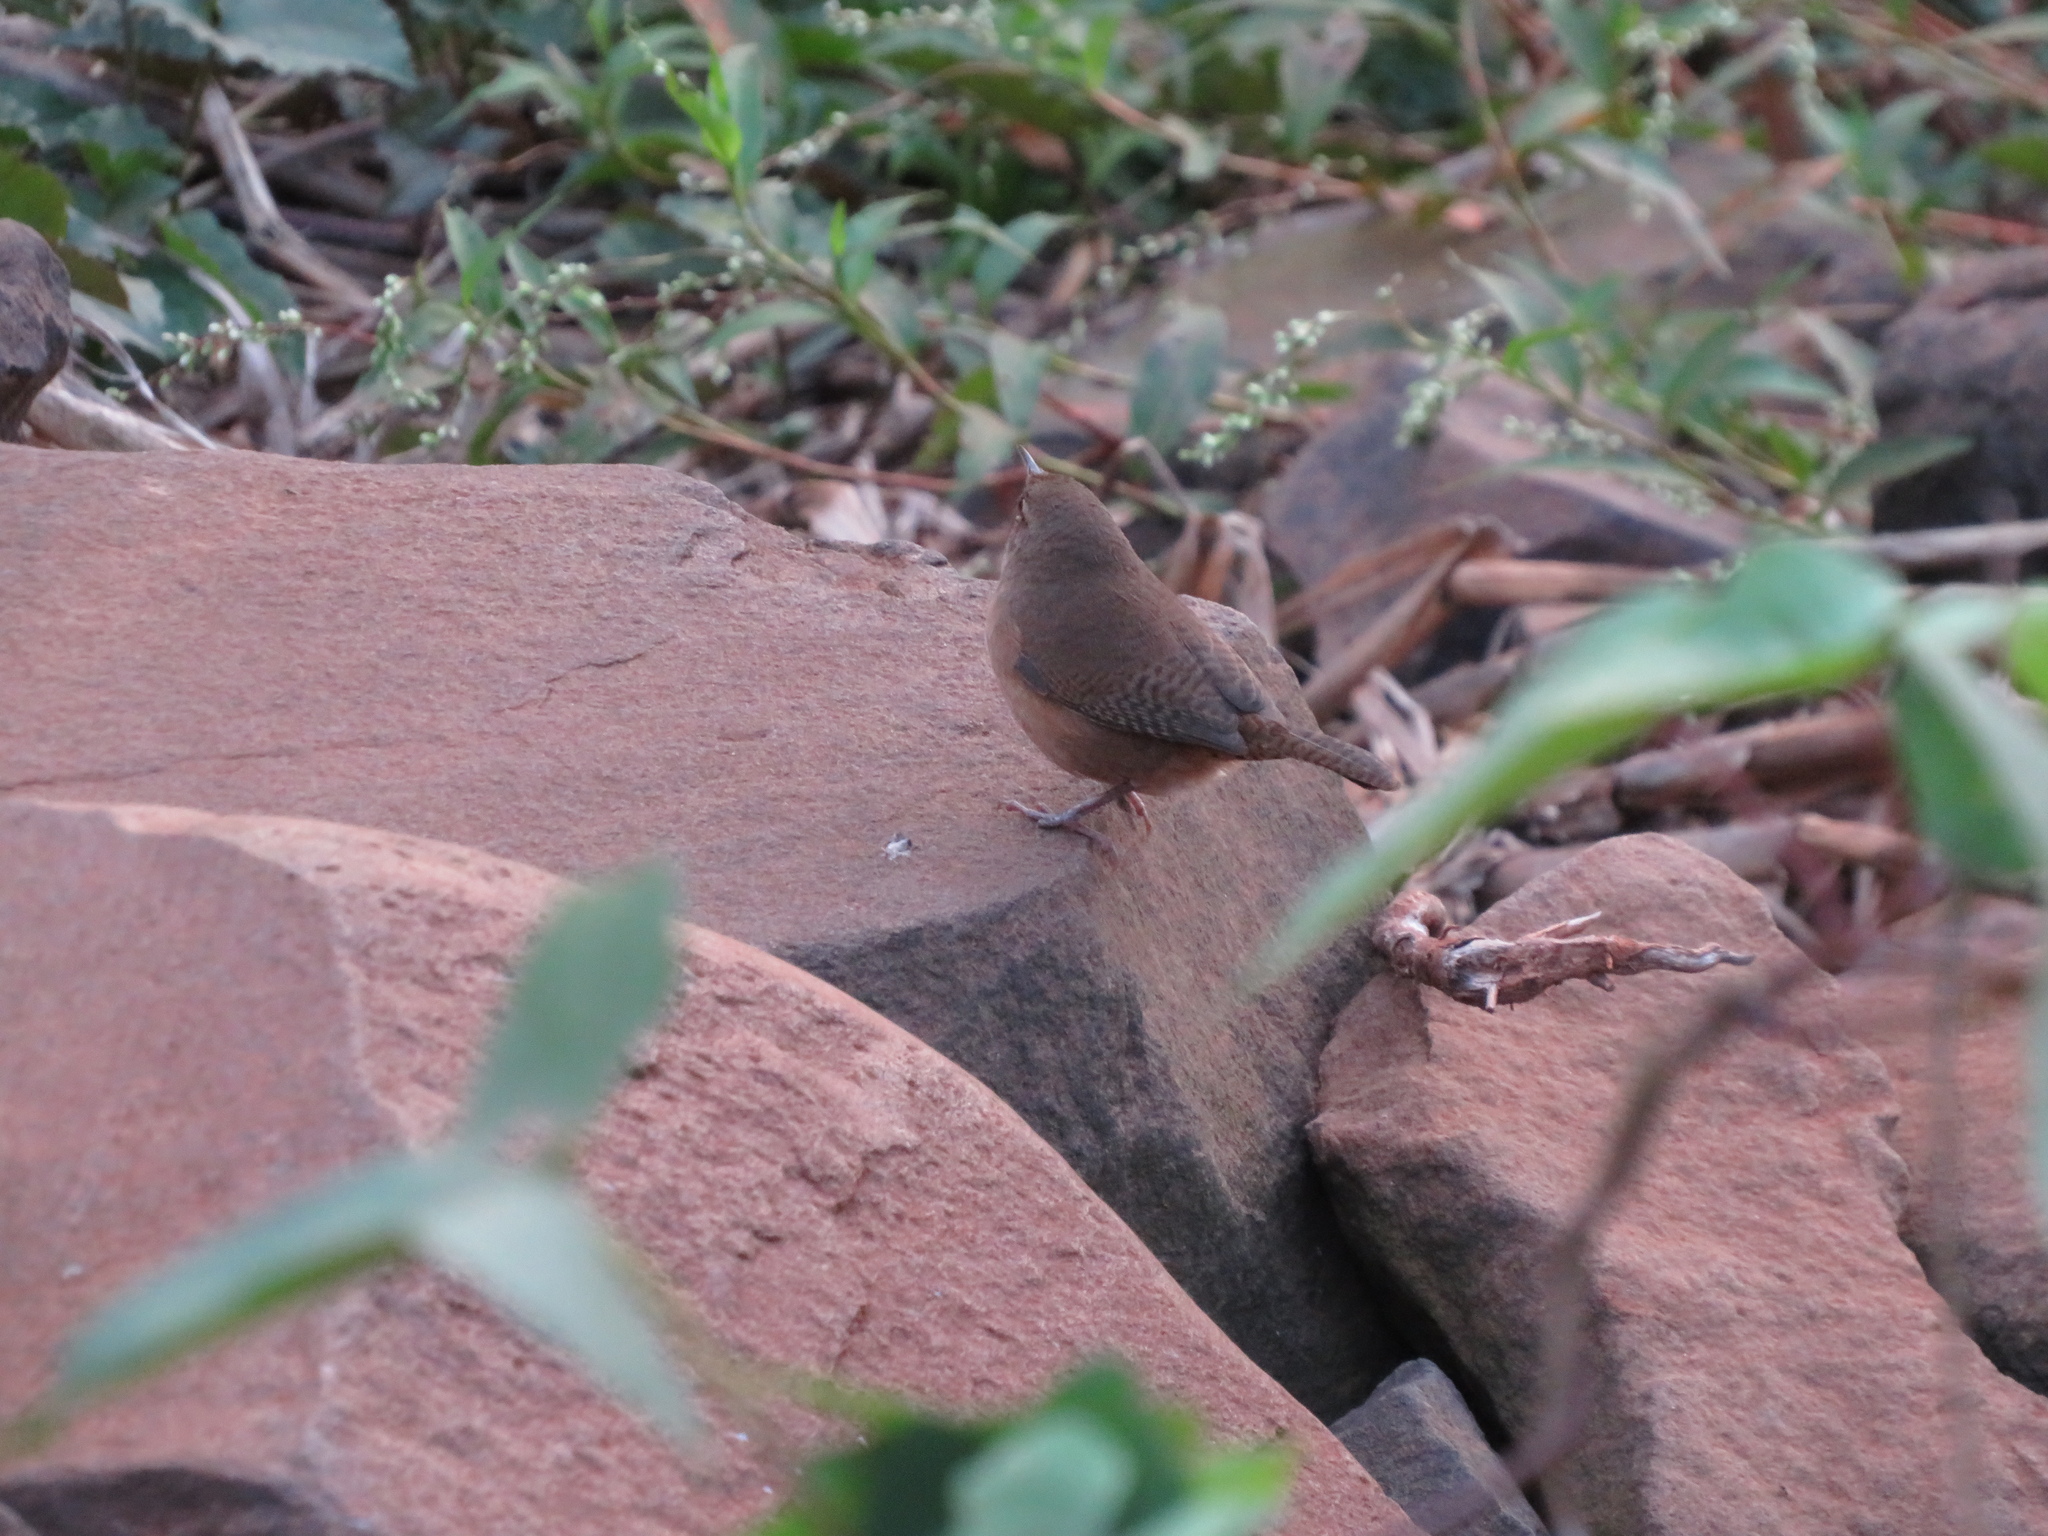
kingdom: Animalia
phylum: Chordata
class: Aves
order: Passeriformes
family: Troglodytidae
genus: Troglodytes
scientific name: Troglodytes aedon
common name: House wren
